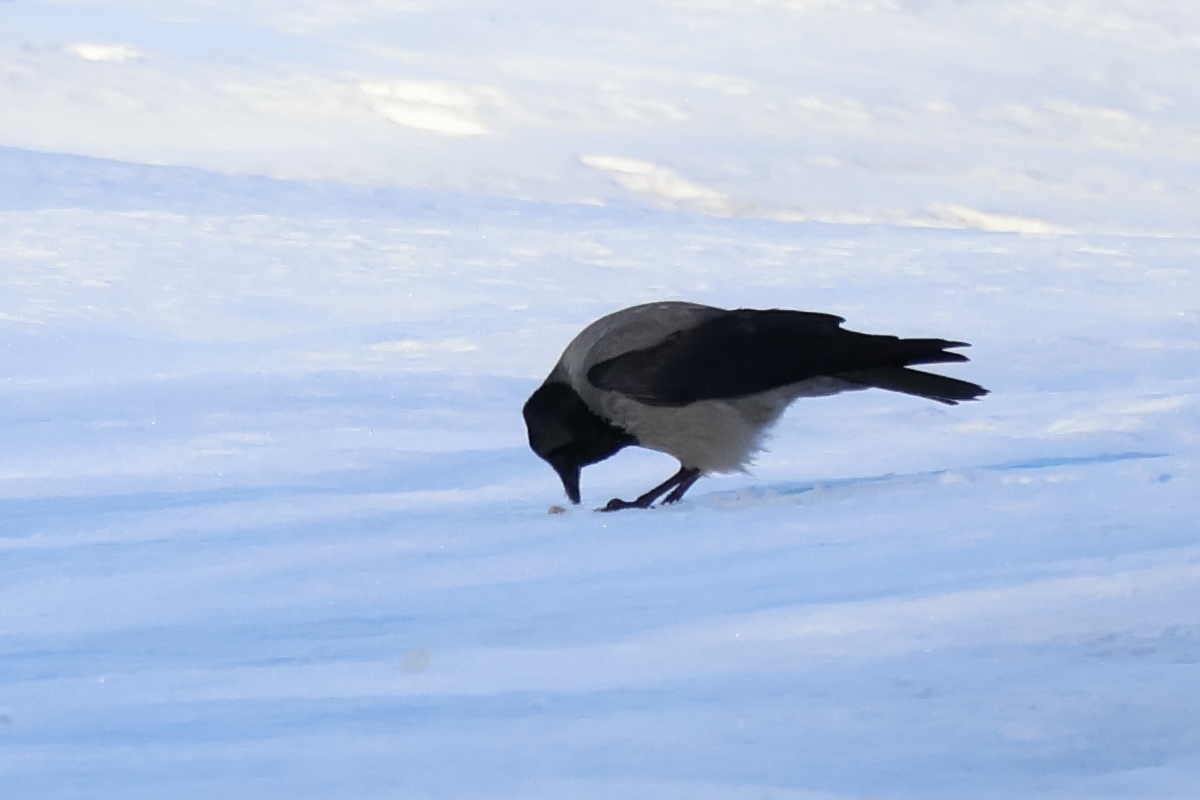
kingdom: Animalia
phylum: Chordata
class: Aves
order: Passeriformes
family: Corvidae
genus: Corvus
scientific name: Corvus cornix
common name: Hooded crow
